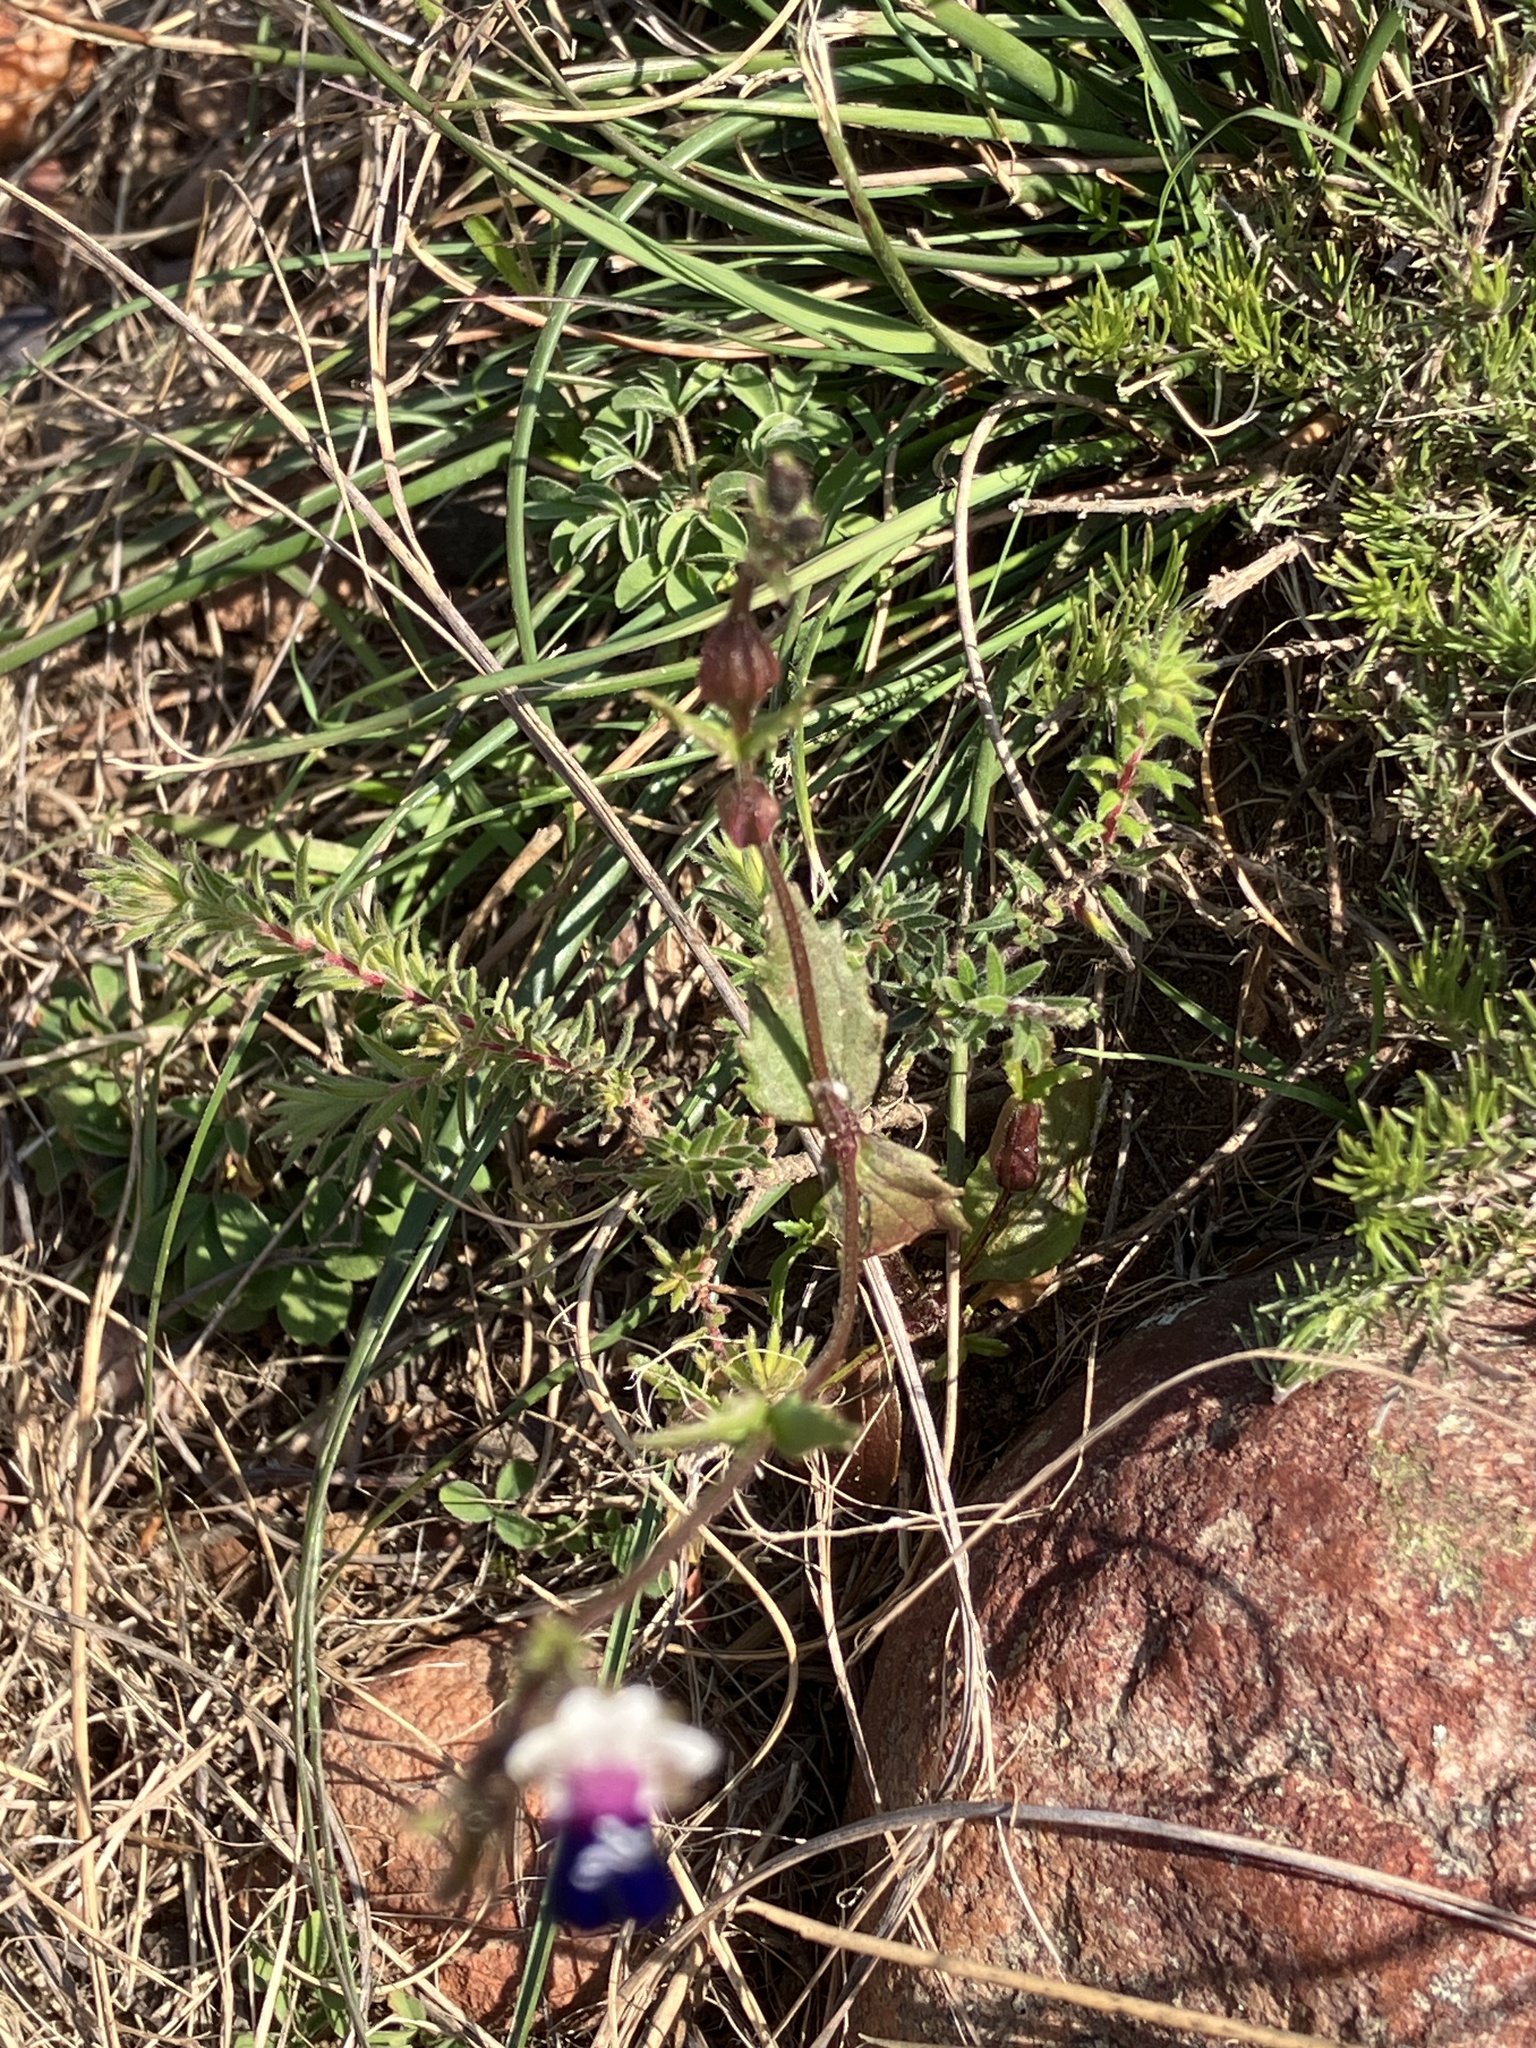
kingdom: Plantae
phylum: Tracheophyta
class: Magnoliopsida
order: Lamiales
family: Scrophulariaceae
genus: Nemesia
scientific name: Nemesia barbata
